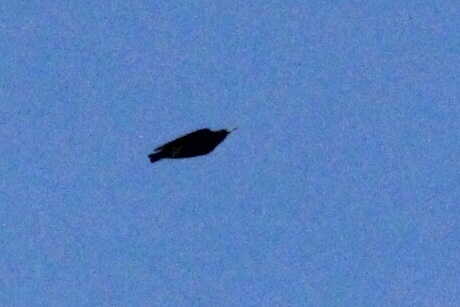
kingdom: Animalia
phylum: Chordata
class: Aves
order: Passeriformes
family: Sturnidae
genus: Sturnus
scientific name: Sturnus vulgaris
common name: Common starling
